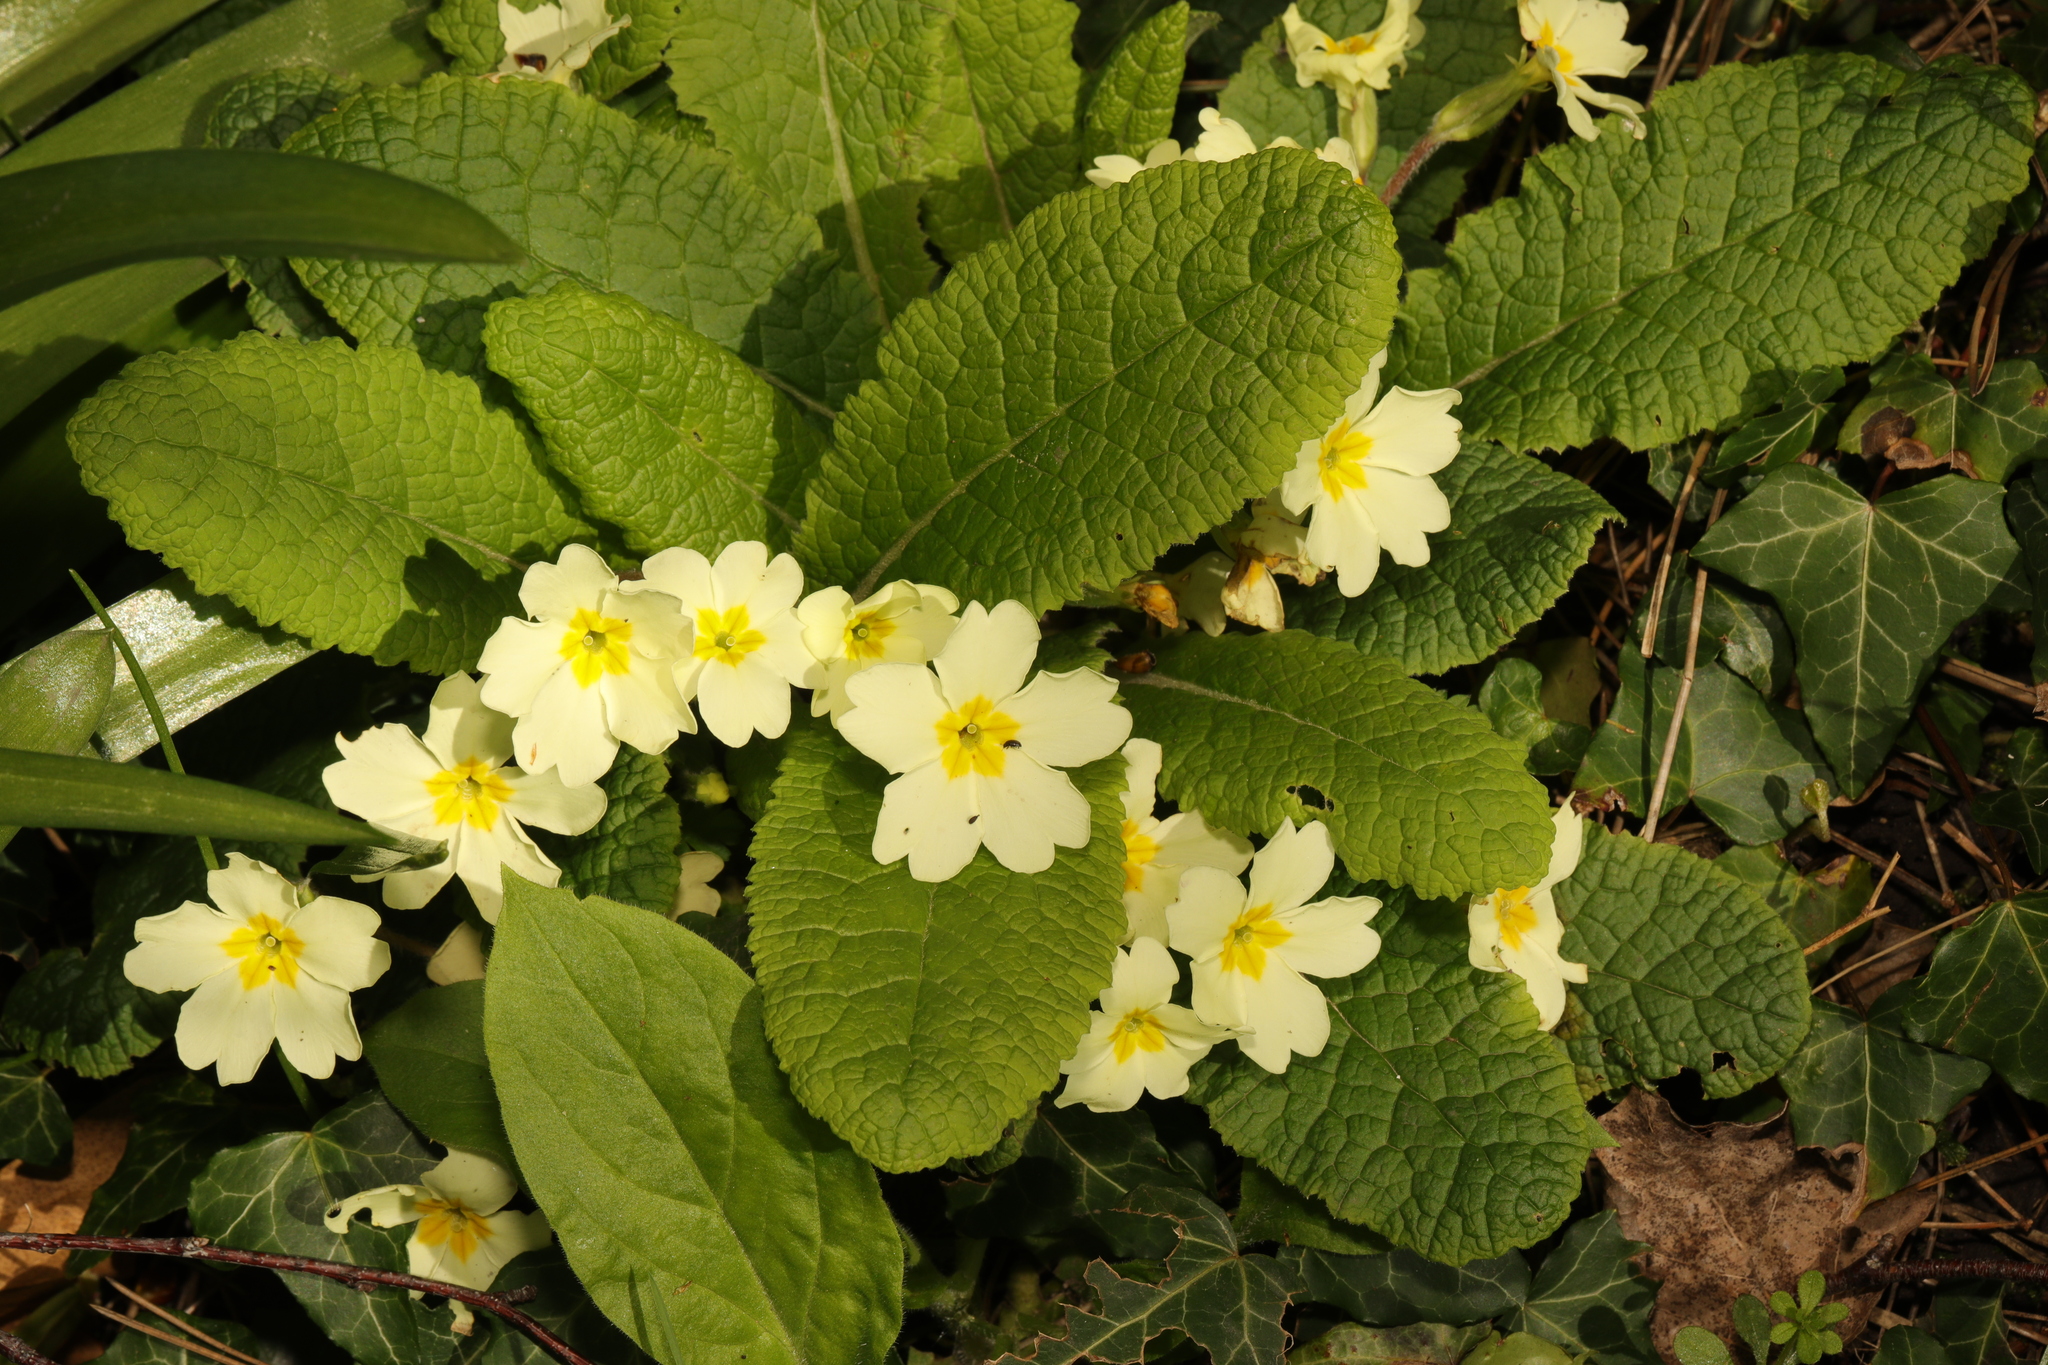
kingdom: Plantae
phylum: Tracheophyta
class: Magnoliopsida
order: Ericales
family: Primulaceae
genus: Primula
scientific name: Primula vulgaris
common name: Primrose
